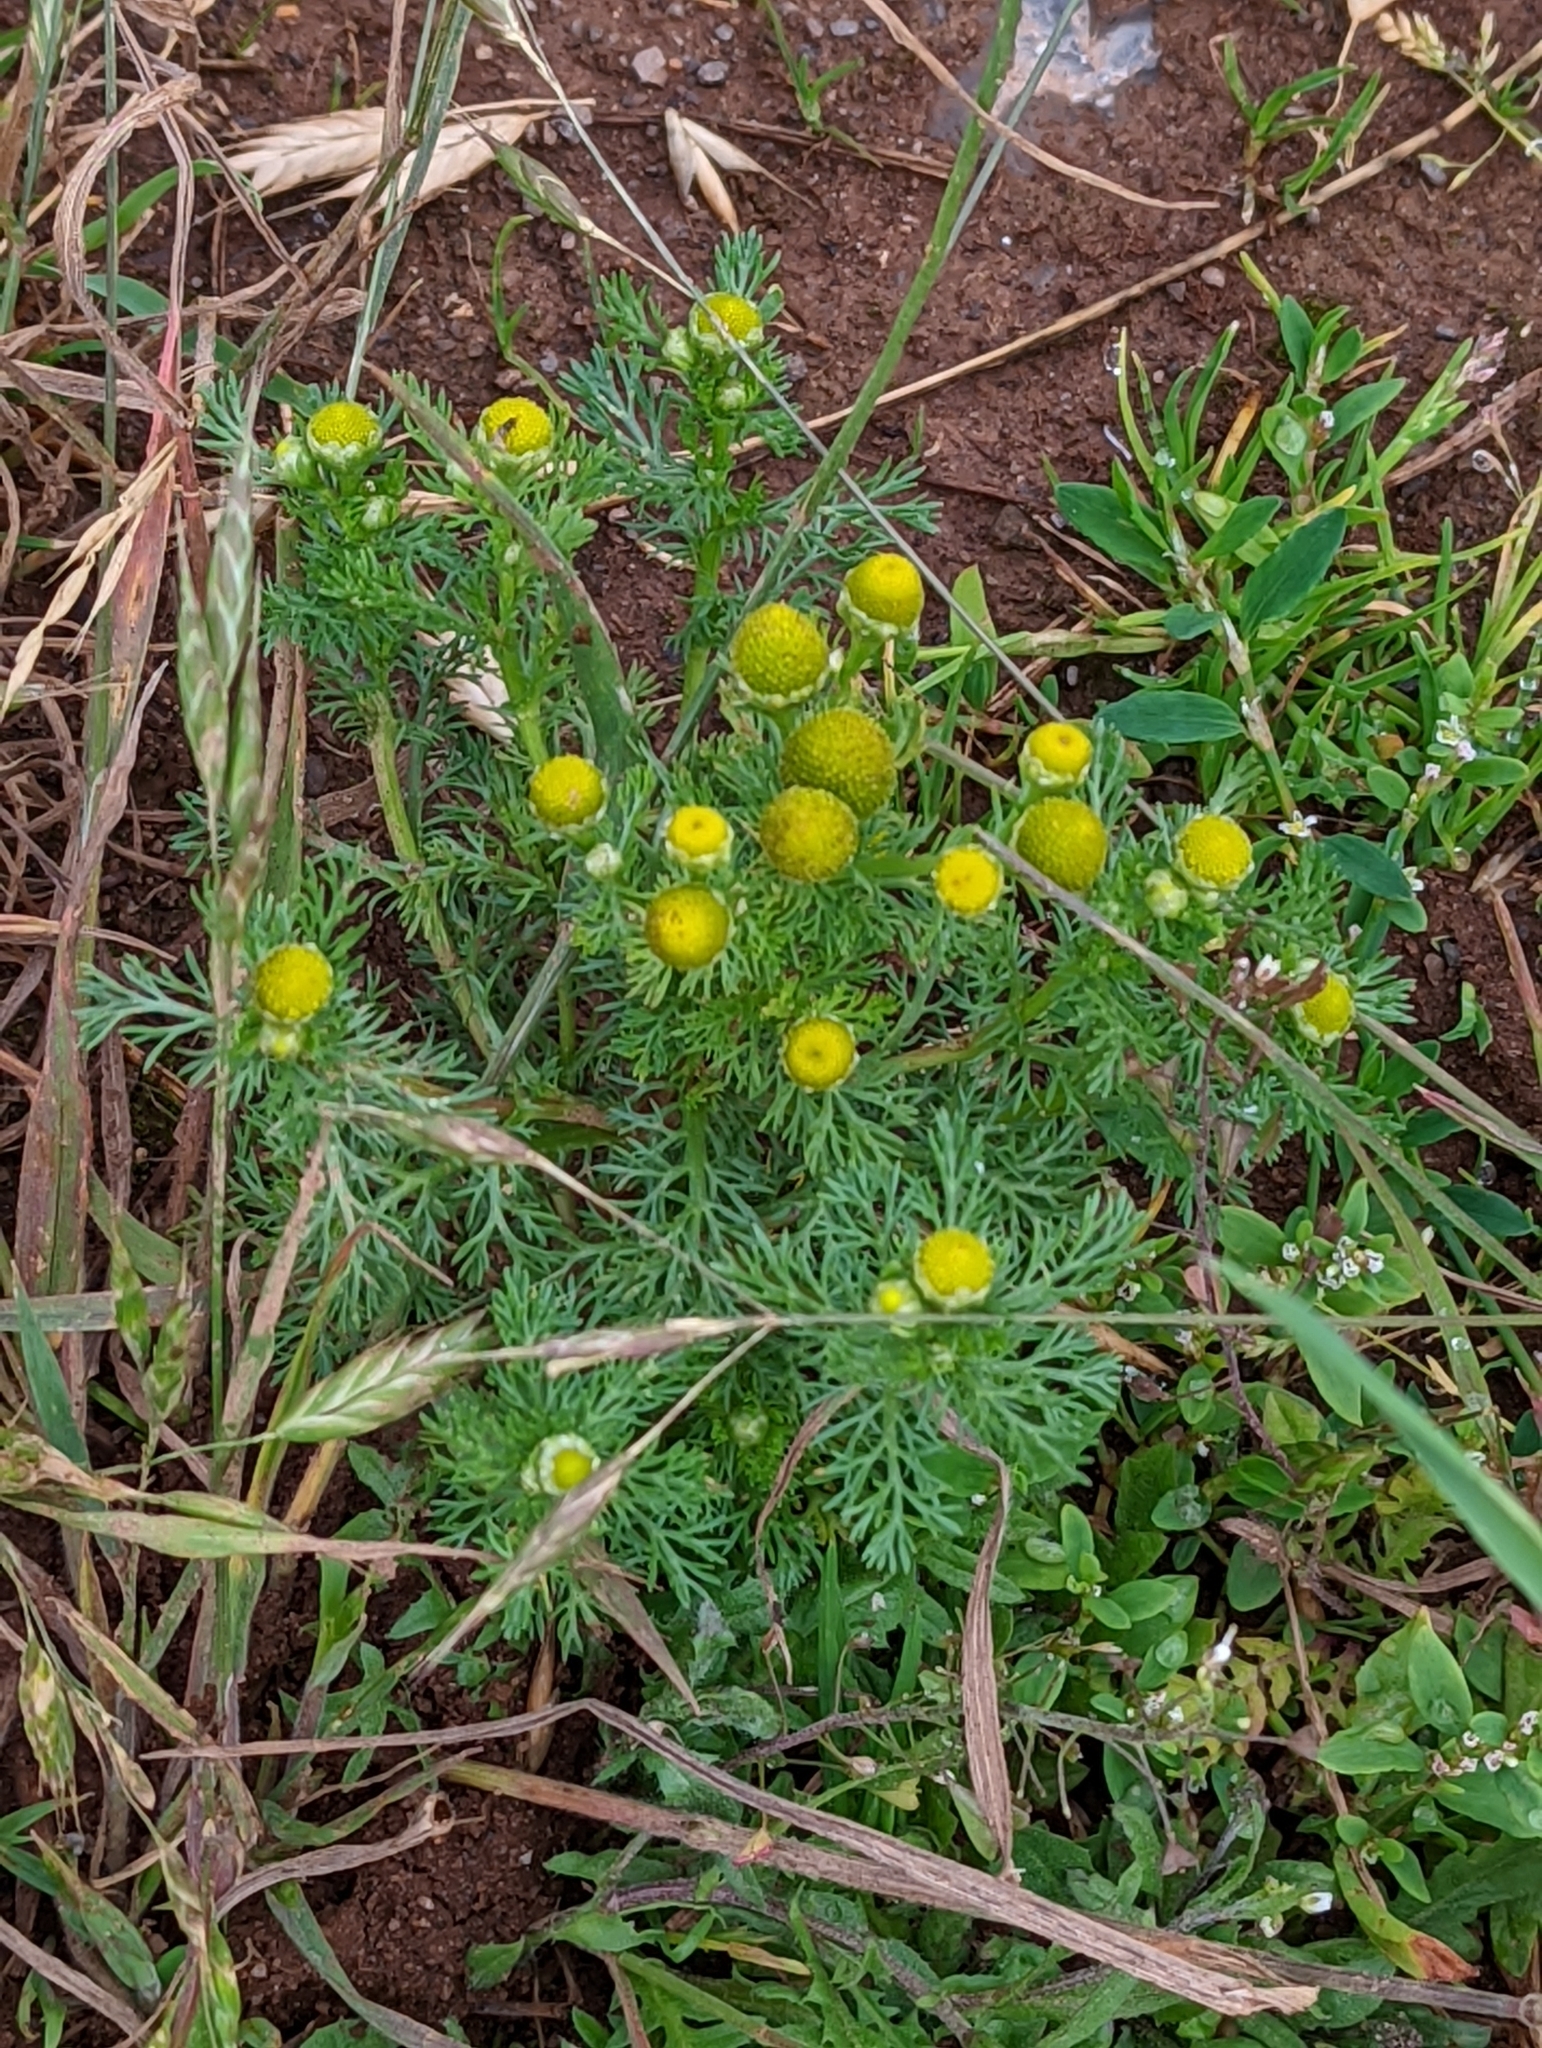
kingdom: Plantae
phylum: Tracheophyta
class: Magnoliopsida
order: Asterales
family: Asteraceae
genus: Matricaria
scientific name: Matricaria discoidea
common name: Disc mayweed
